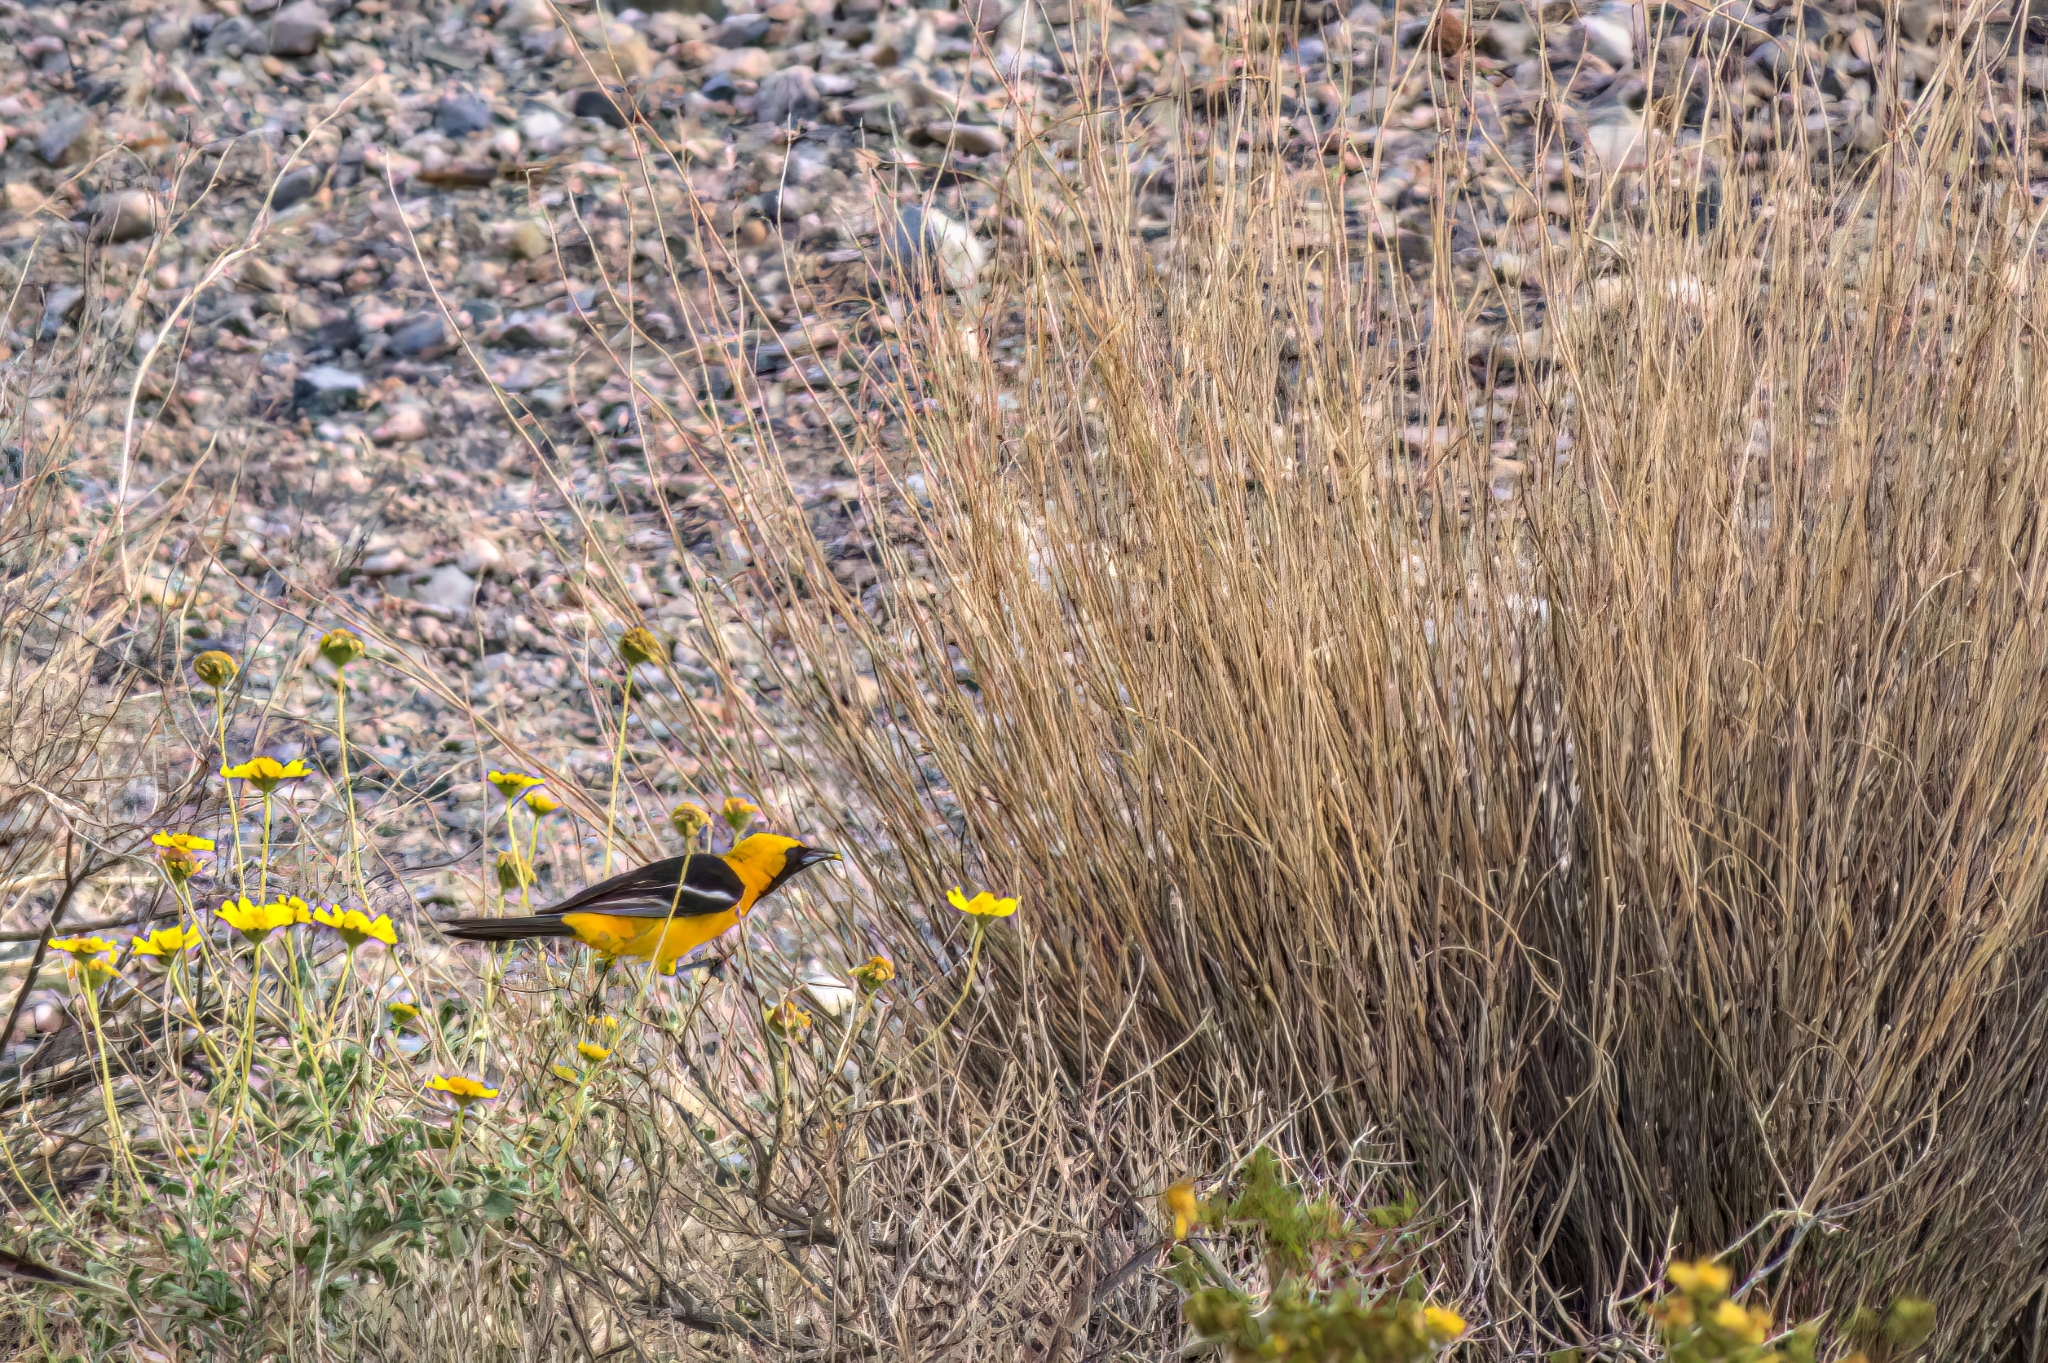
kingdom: Animalia
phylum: Chordata
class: Aves
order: Passeriformes
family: Icteridae
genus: Icterus
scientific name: Icterus cucullatus
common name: Hooded oriole
